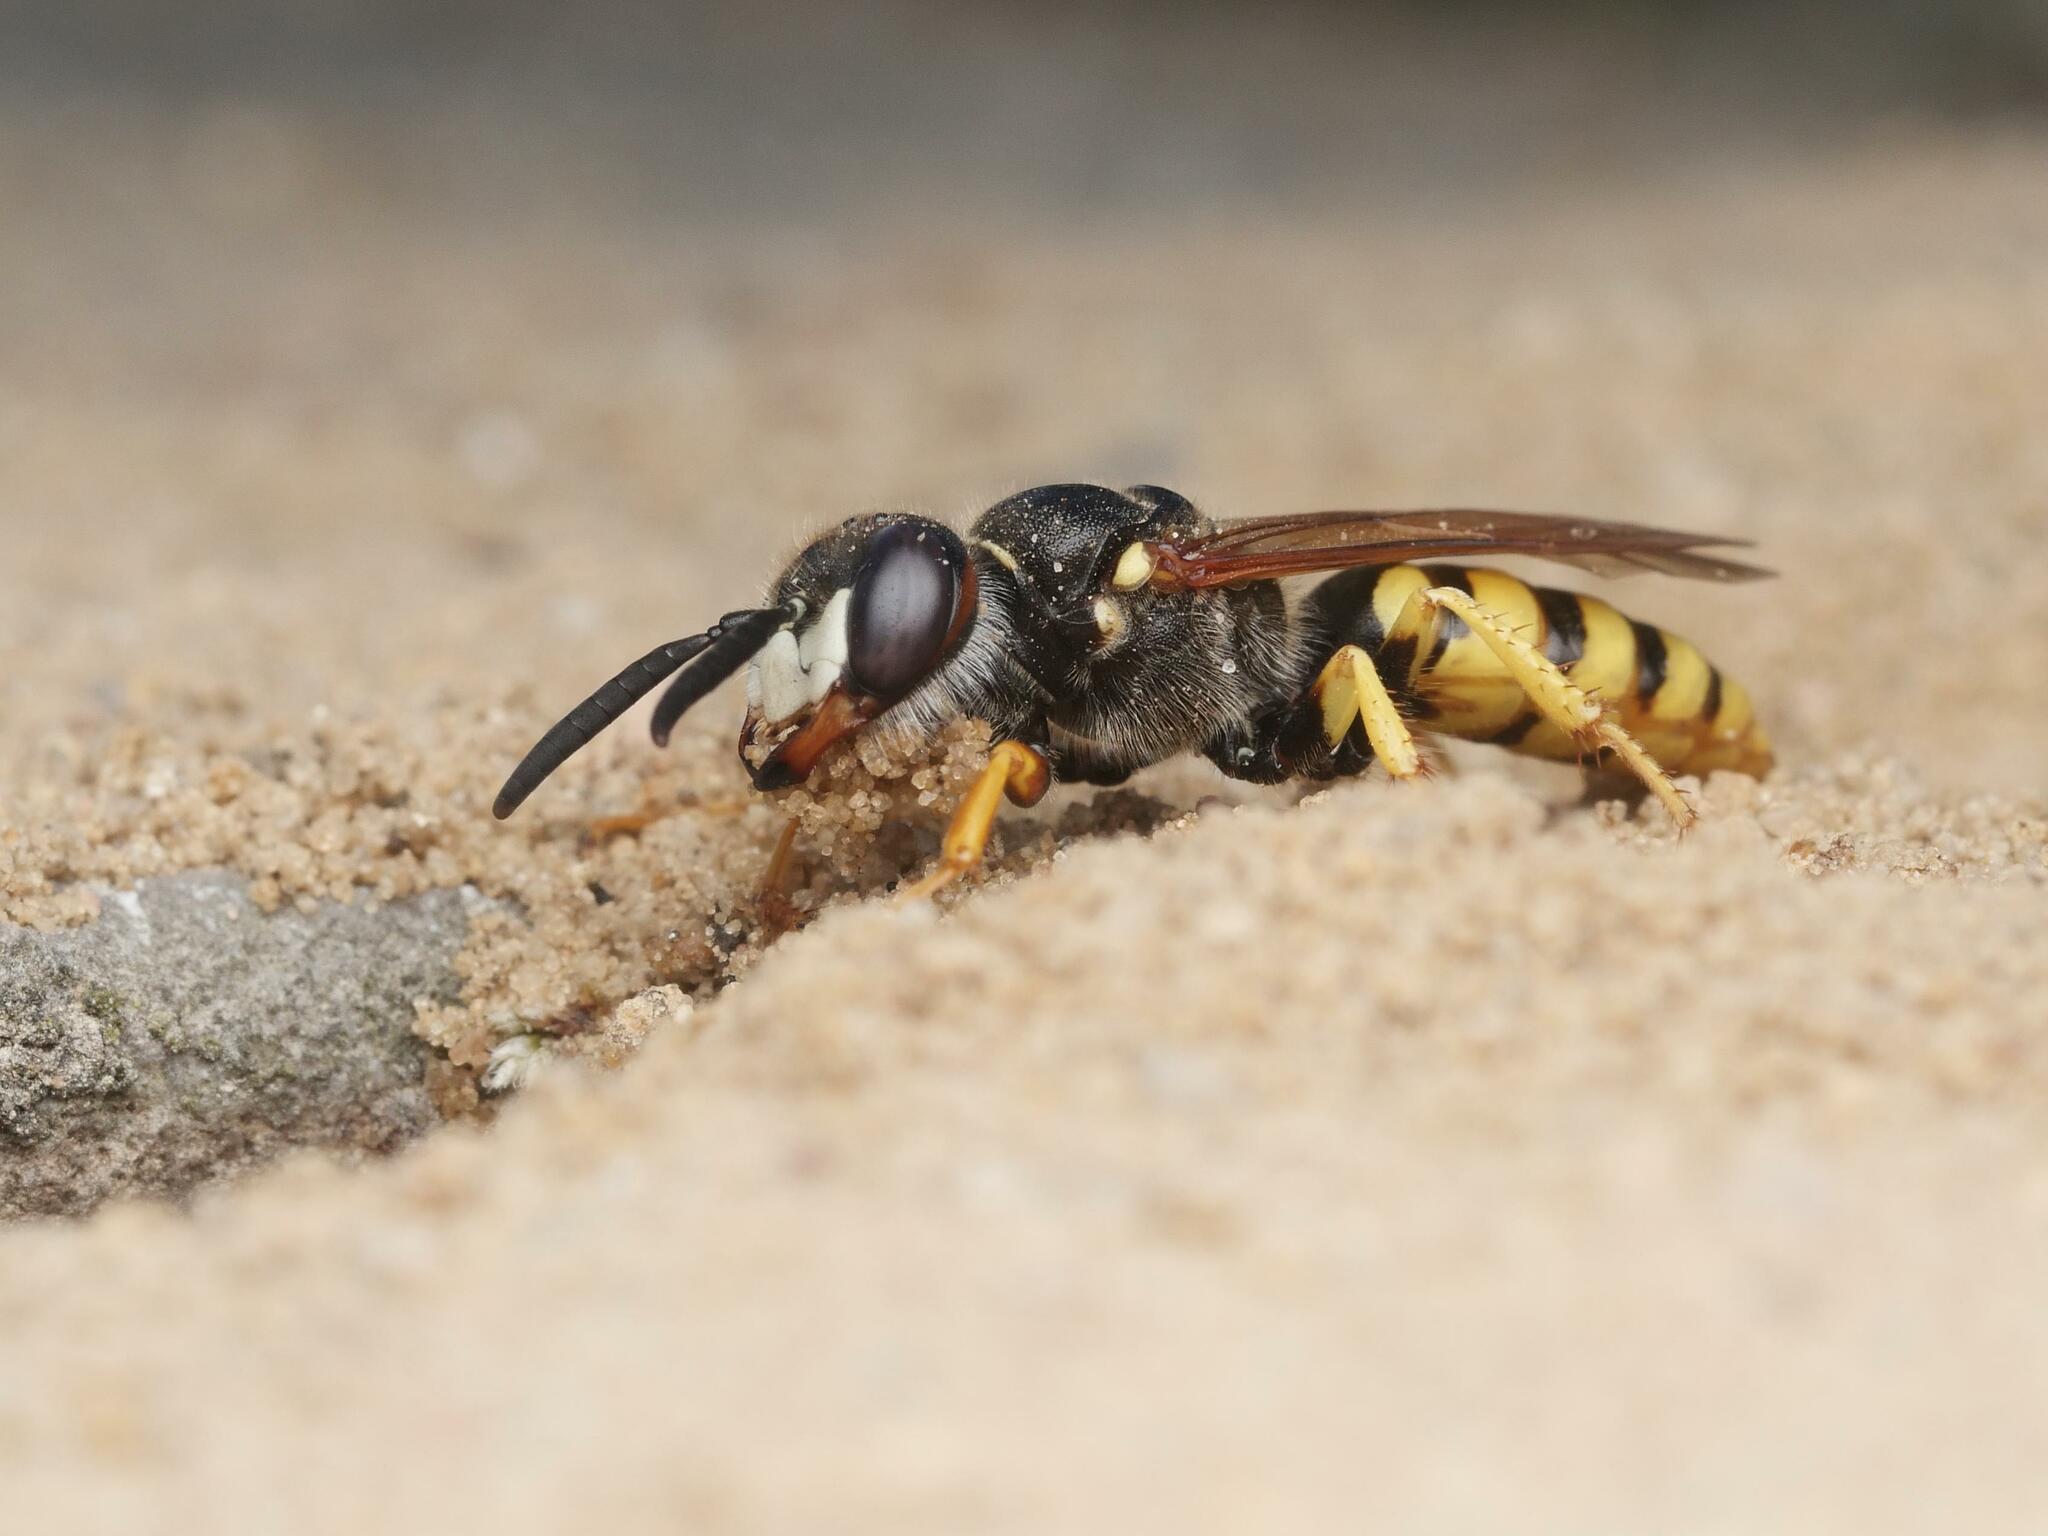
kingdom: Animalia
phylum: Arthropoda
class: Insecta
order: Hymenoptera
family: Crabronidae
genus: Philanthus
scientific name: Philanthus triangulum
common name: Bee wolf
